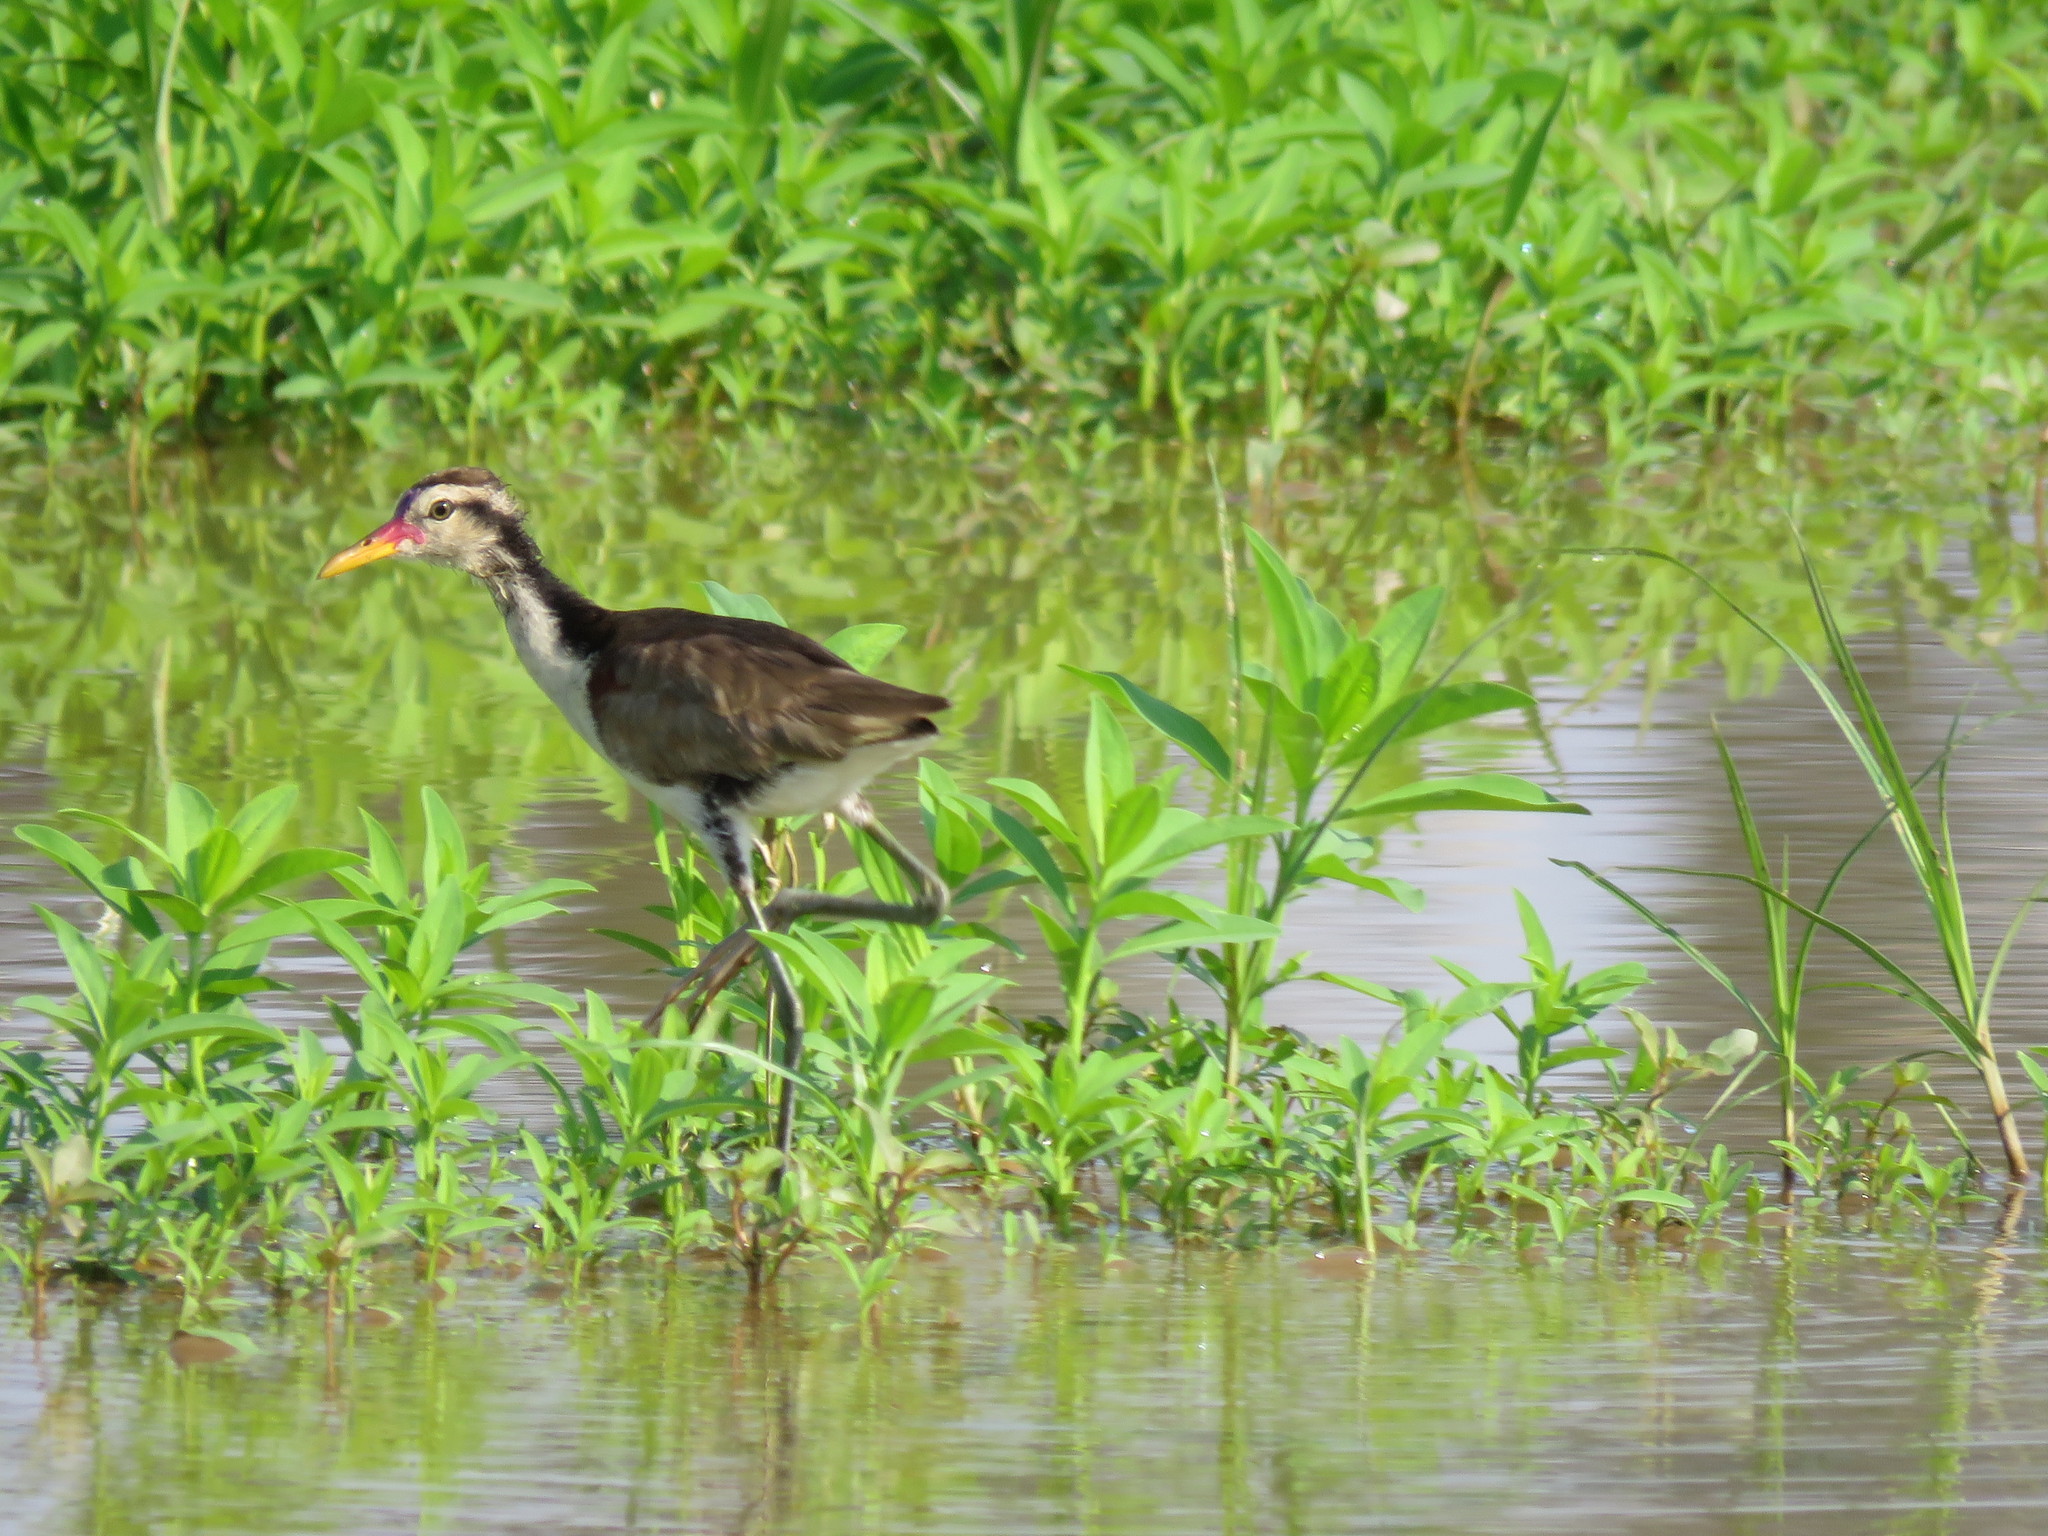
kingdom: Animalia
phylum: Chordata
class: Aves
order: Charadriiformes
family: Jacanidae
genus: Jacana
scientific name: Jacana jacana
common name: Wattled jacana
